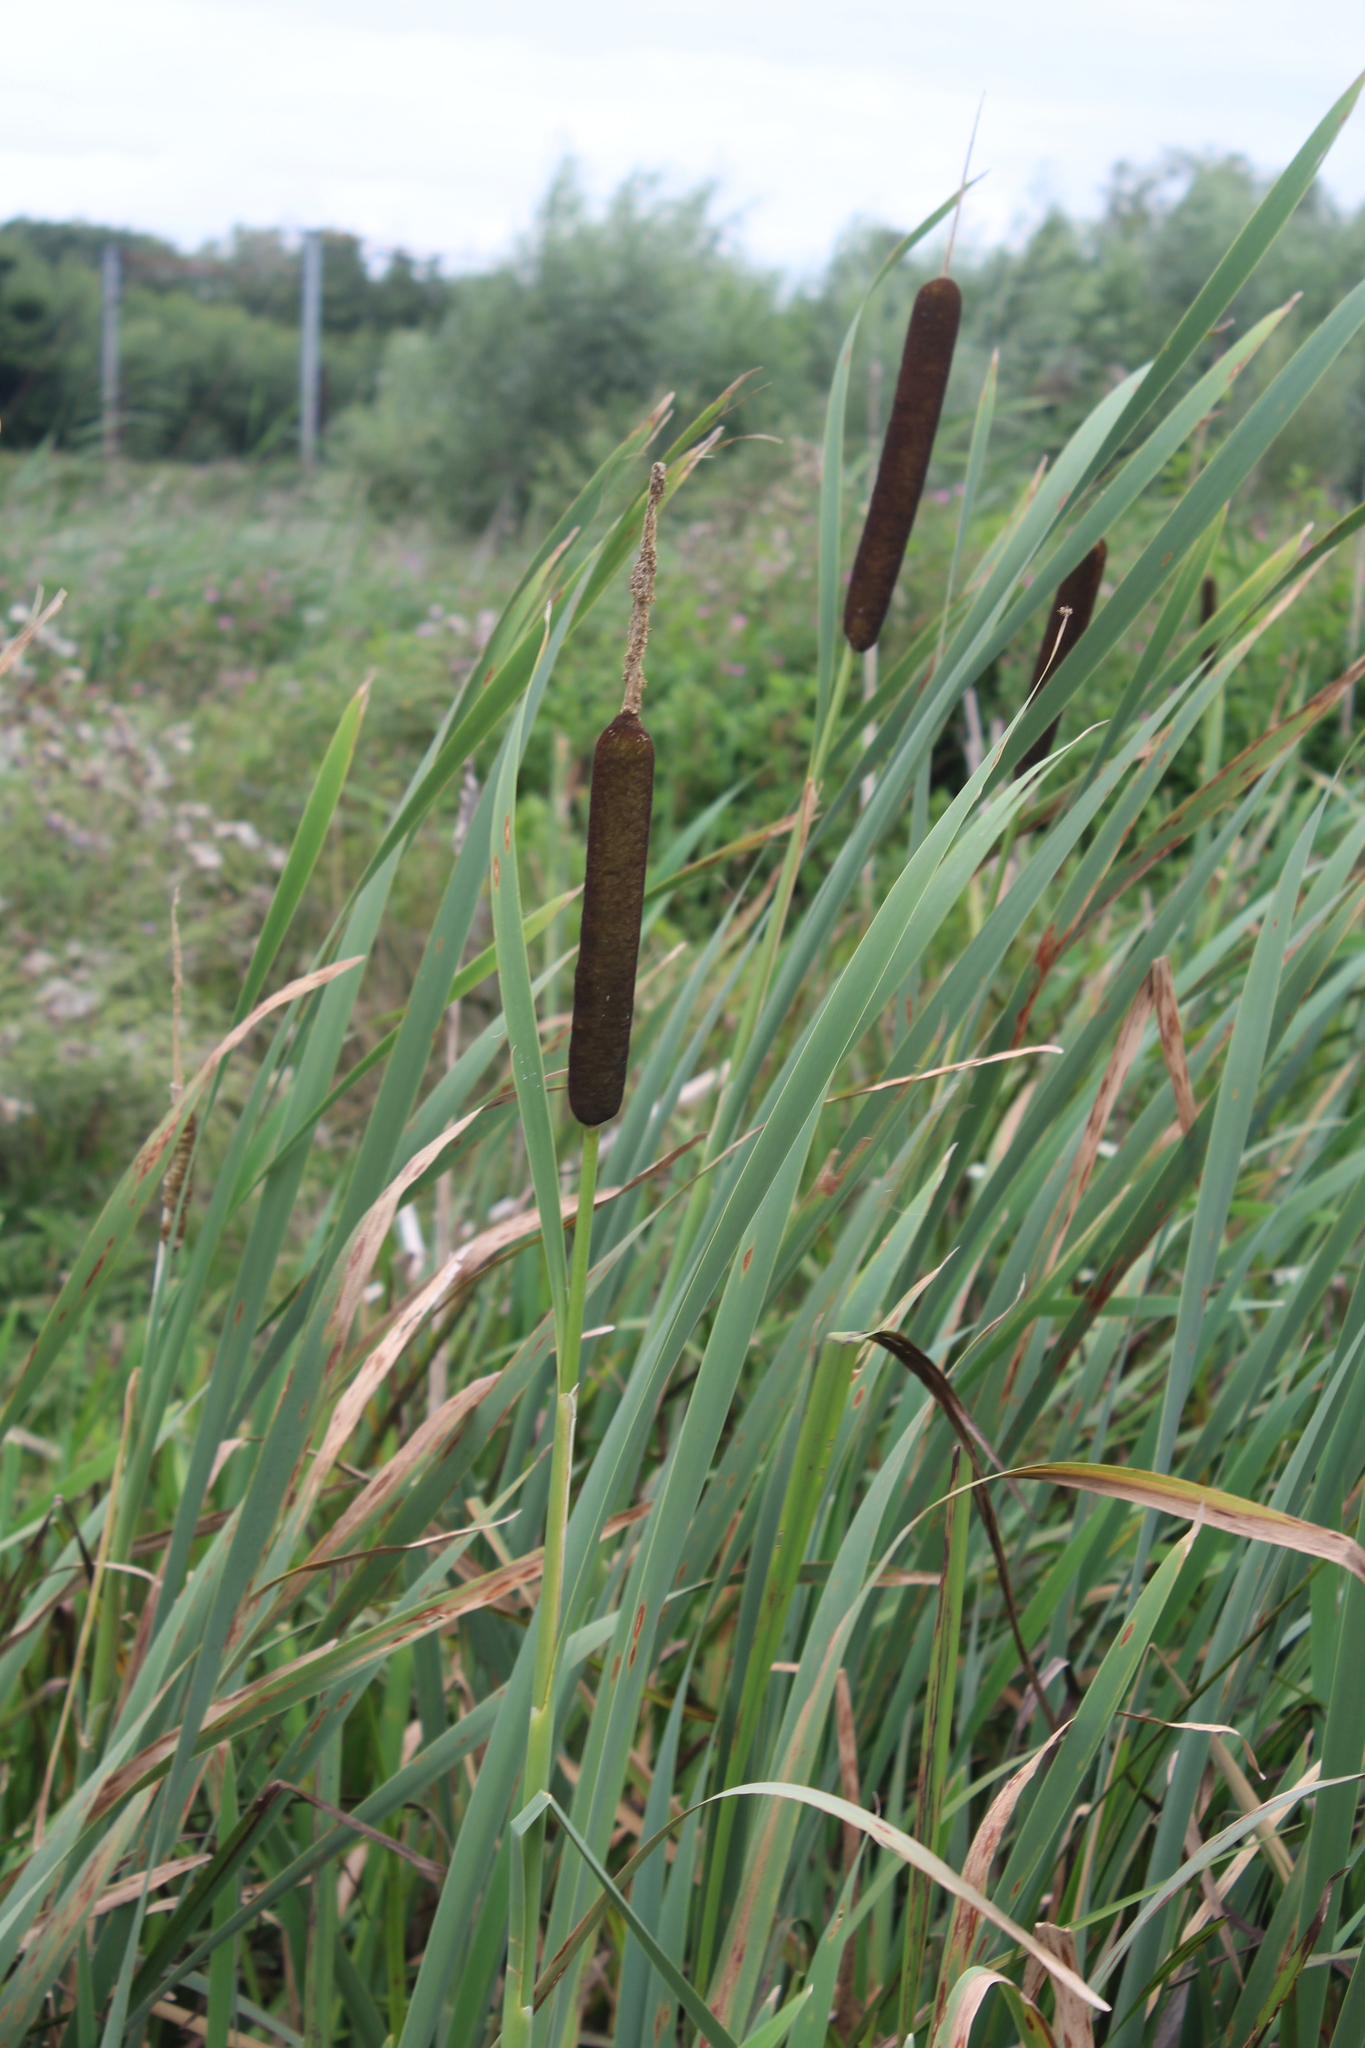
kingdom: Plantae
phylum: Tracheophyta
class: Liliopsida
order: Poales
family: Typhaceae
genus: Typha
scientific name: Typha latifolia
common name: Broadleaf cattail
